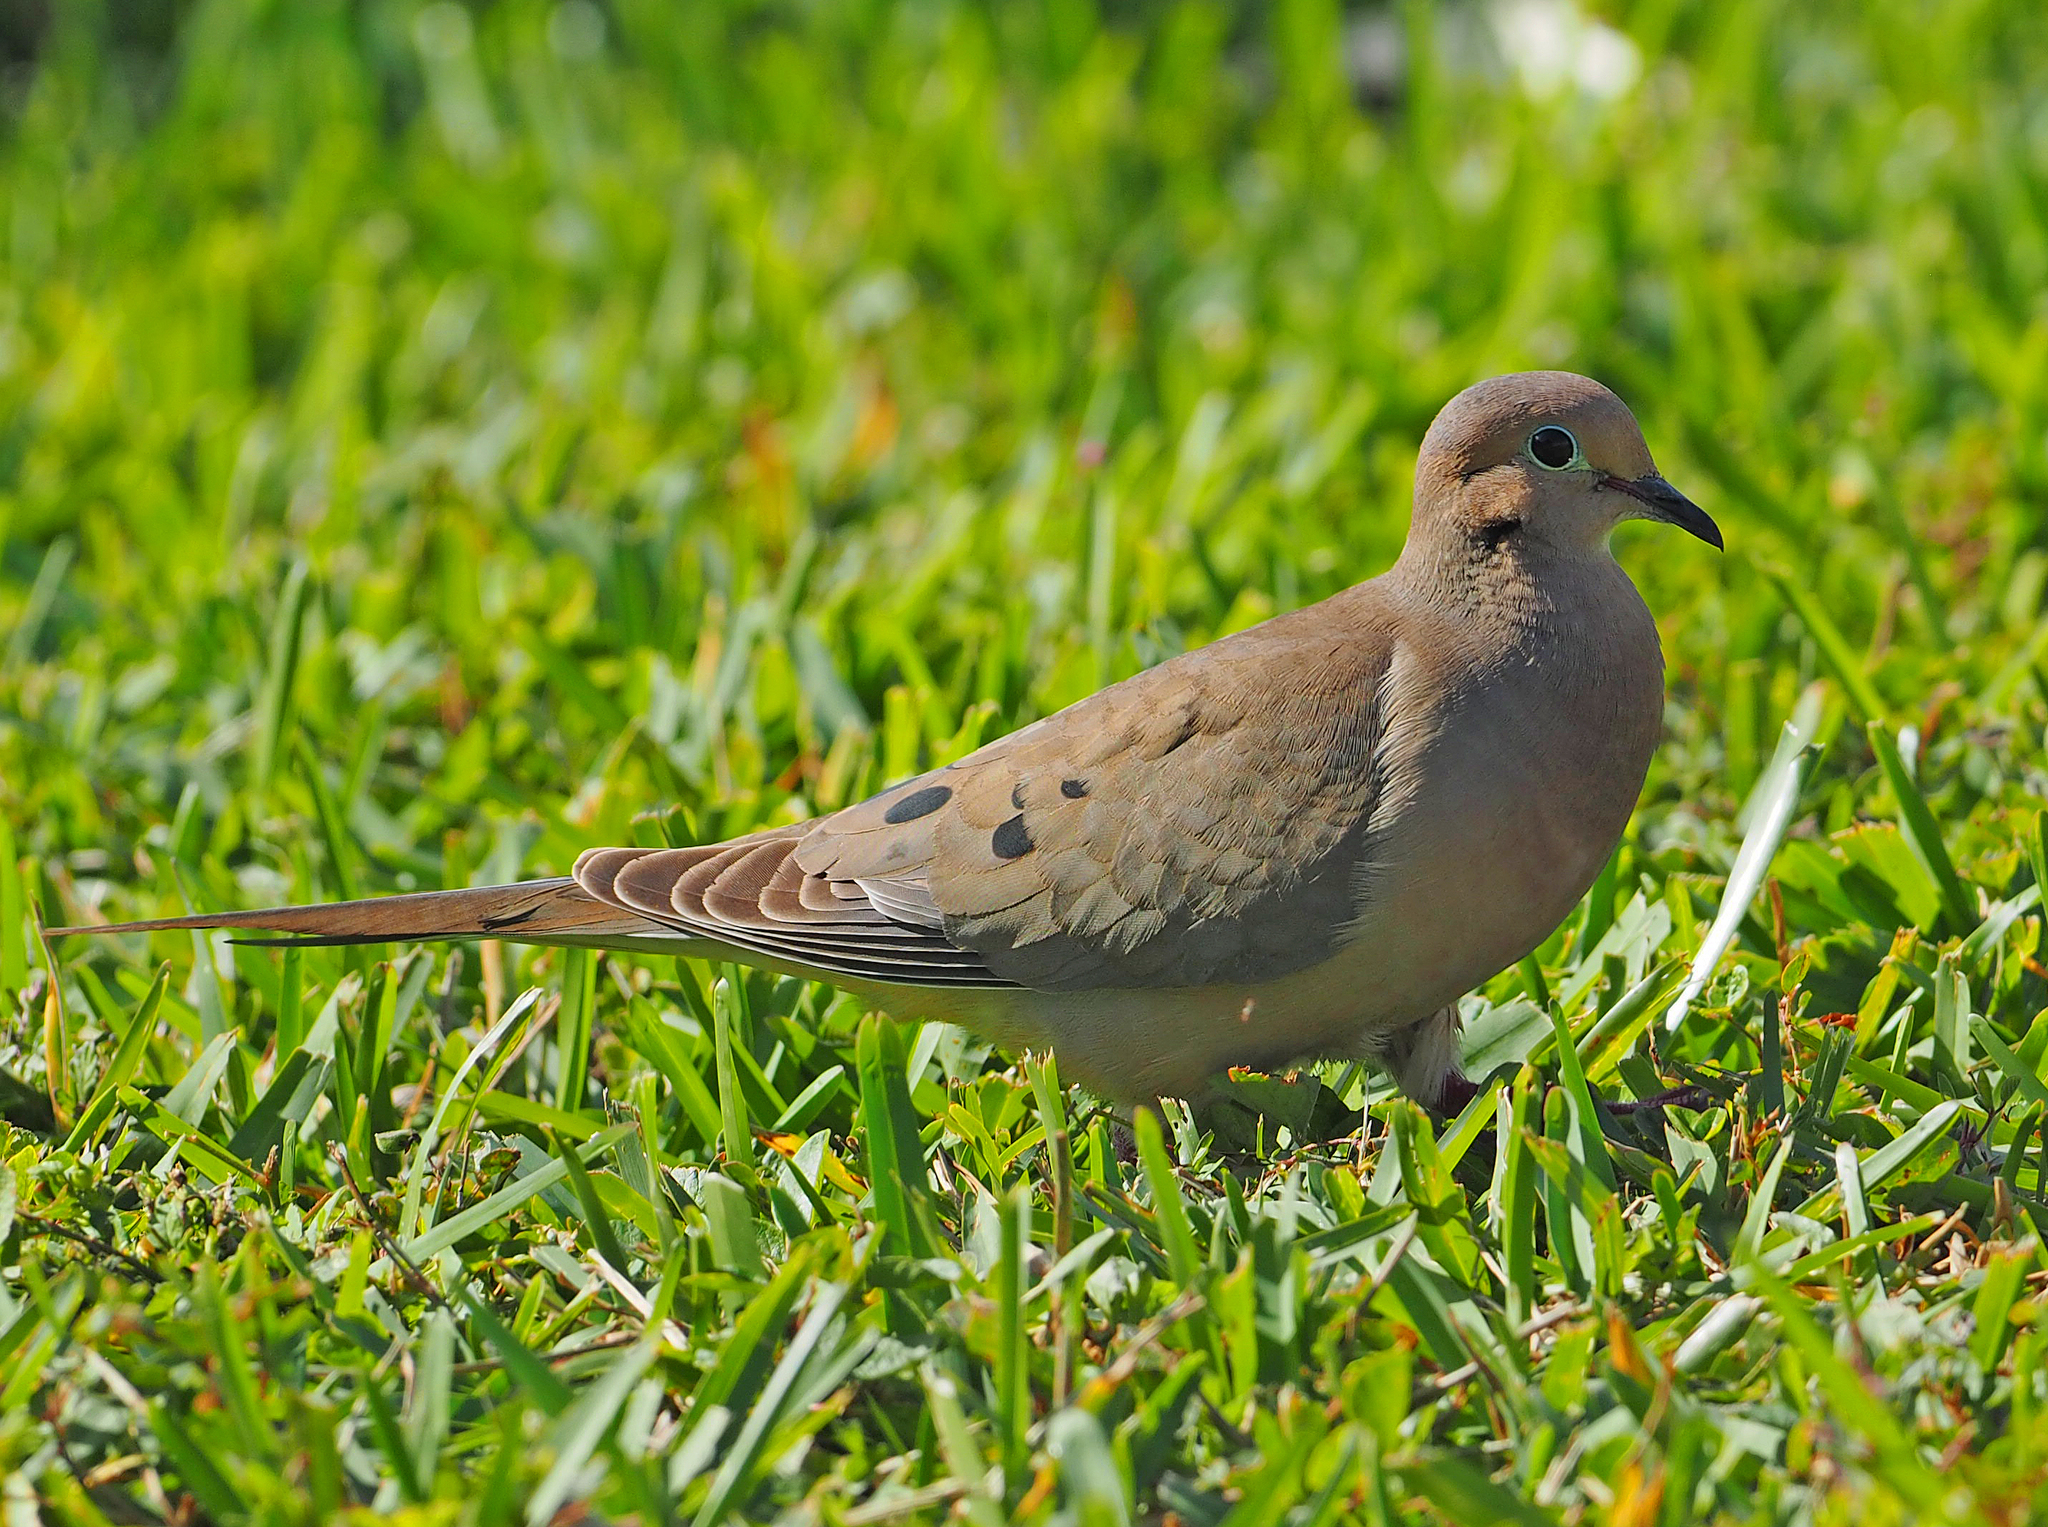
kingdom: Animalia
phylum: Chordata
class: Aves
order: Columbiformes
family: Columbidae
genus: Zenaida
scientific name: Zenaida macroura
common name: Mourning dove
